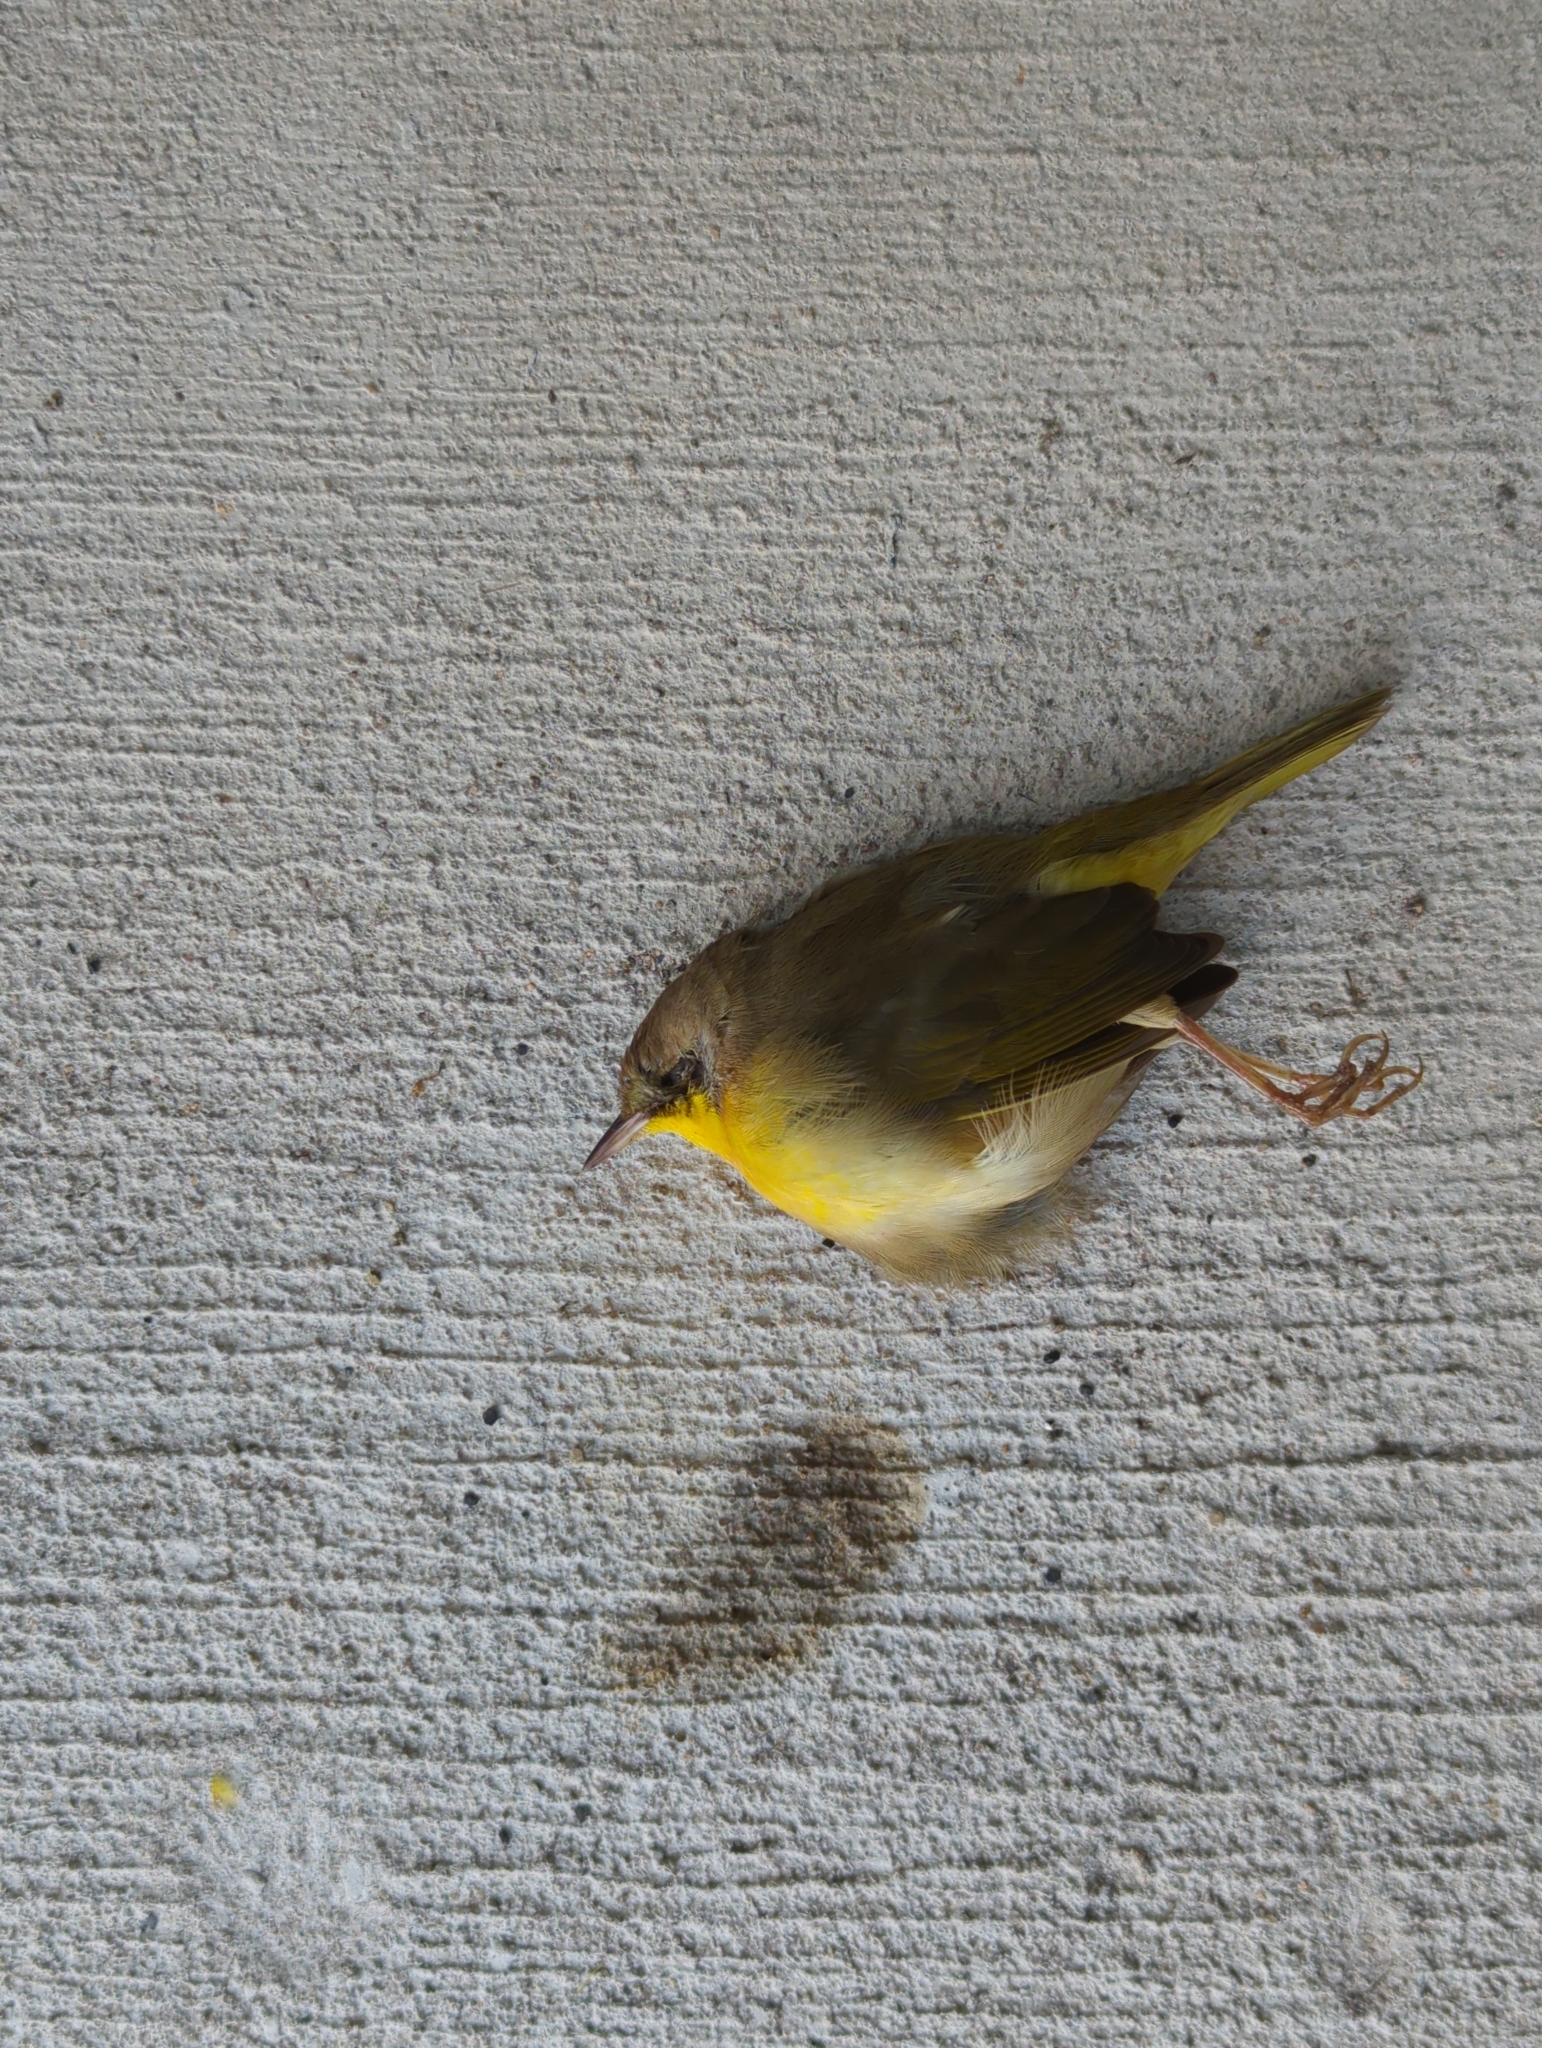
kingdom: Animalia
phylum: Chordata
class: Aves
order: Passeriformes
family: Parulidae
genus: Geothlypis
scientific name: Geothlypis trichas
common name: Common yellowthroat
